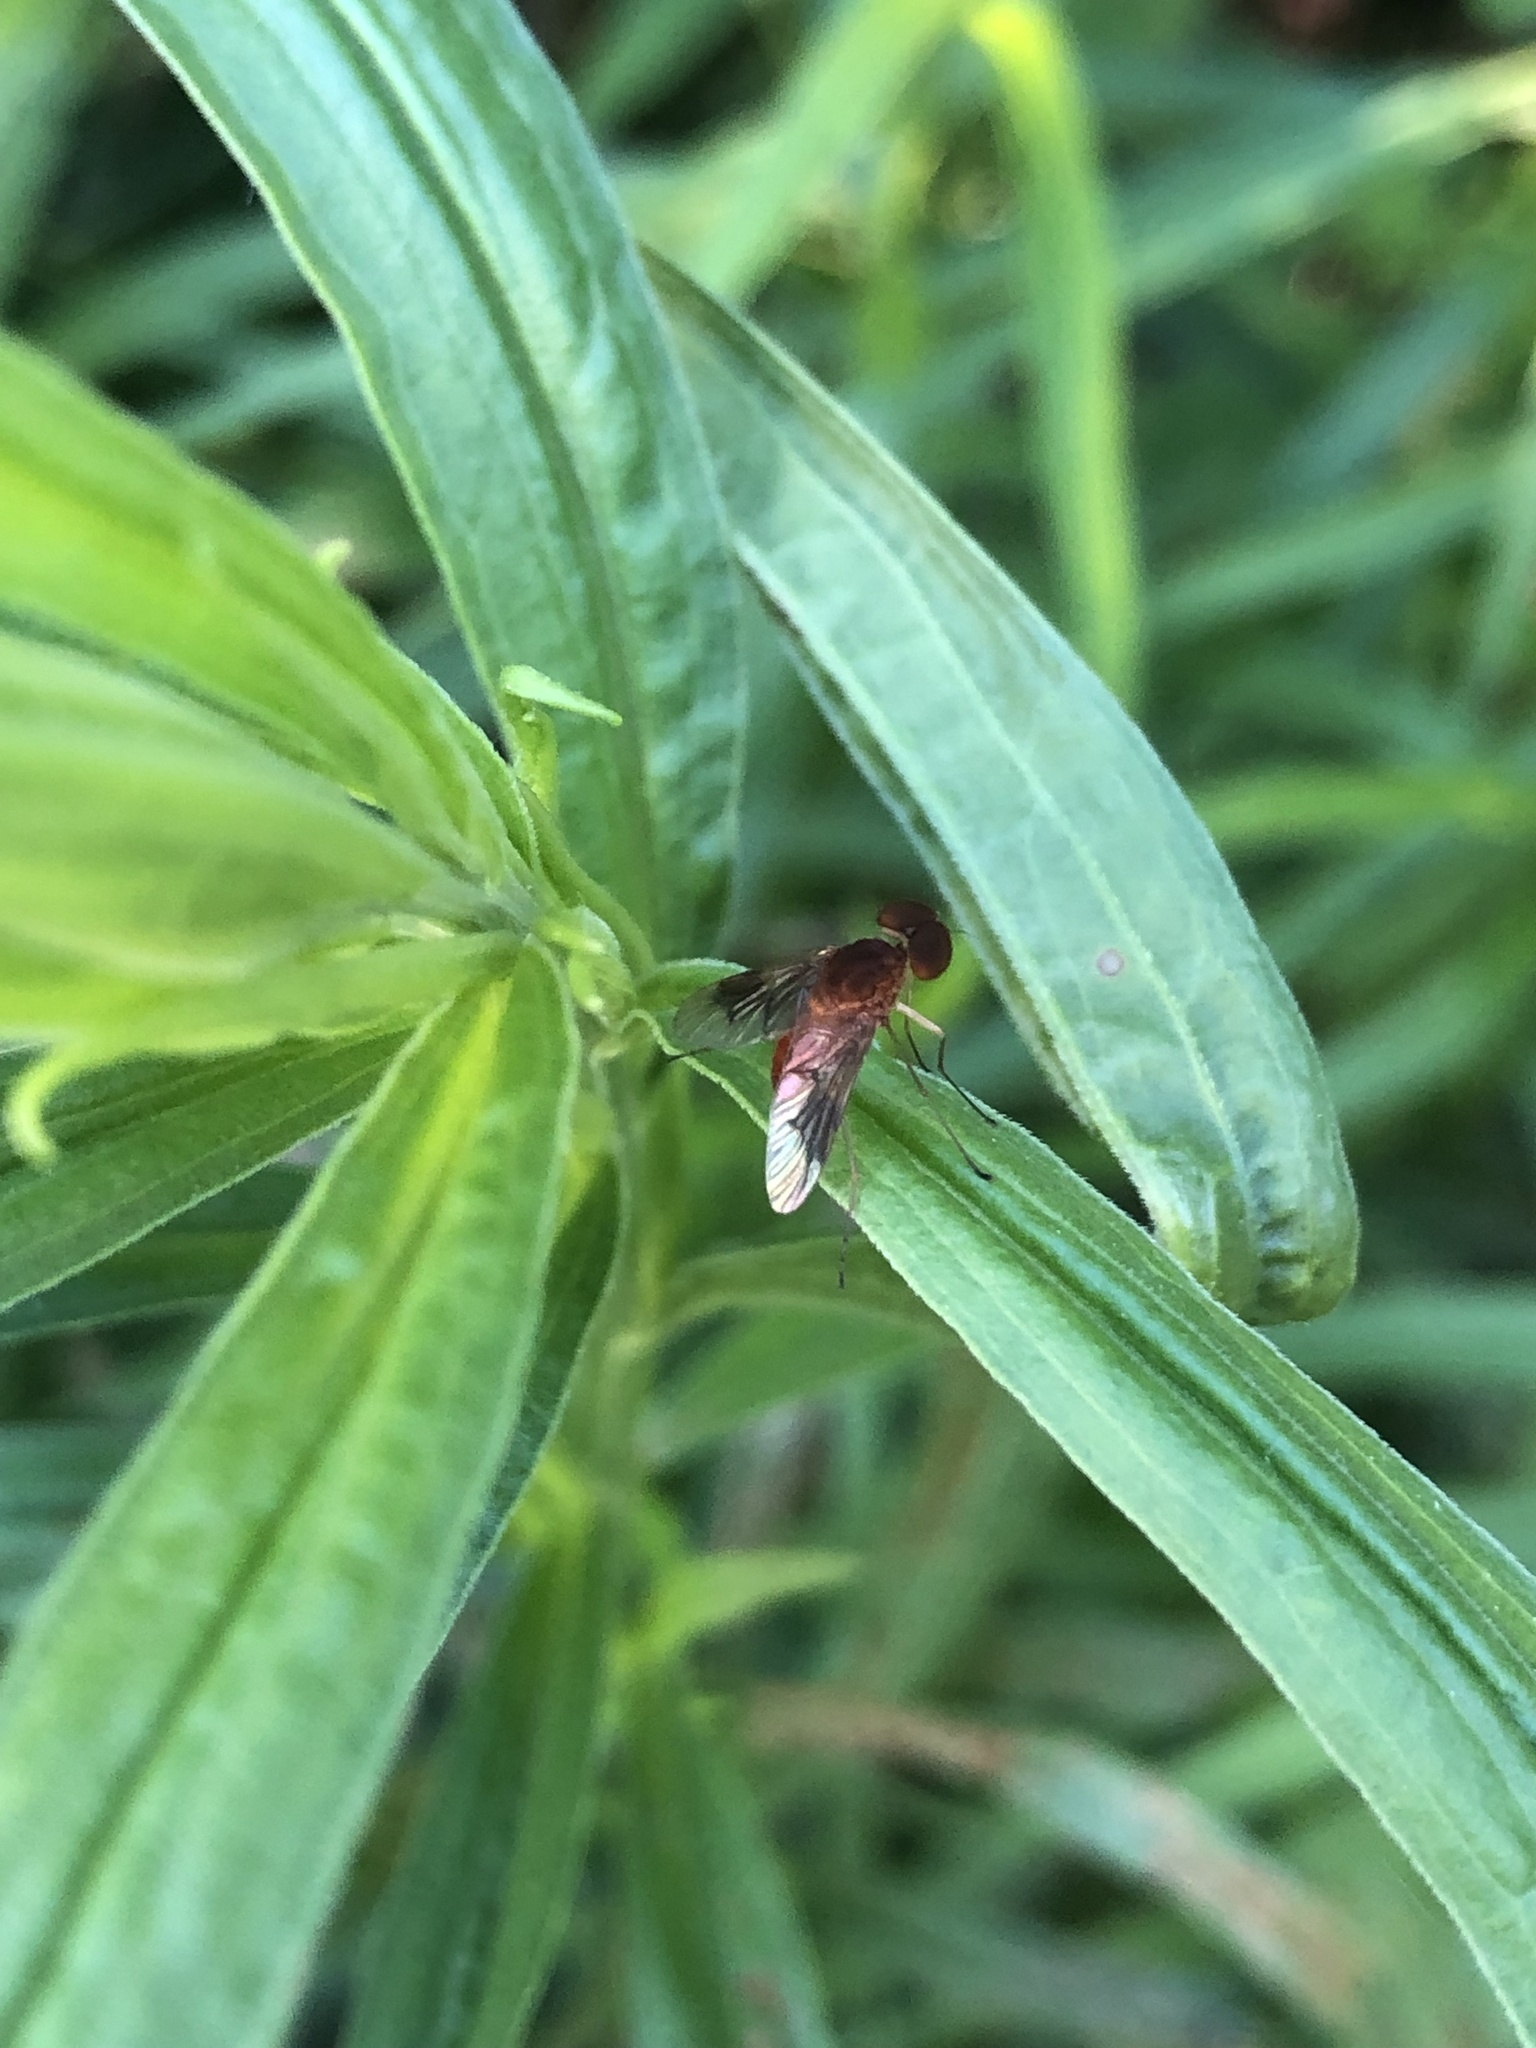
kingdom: Animalia
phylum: Arthropoda
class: Insecta
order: Diptera
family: Rhagionidae
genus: Chrysopilus
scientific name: Chrysopilus quadratus
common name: Quadrate snipe fly
